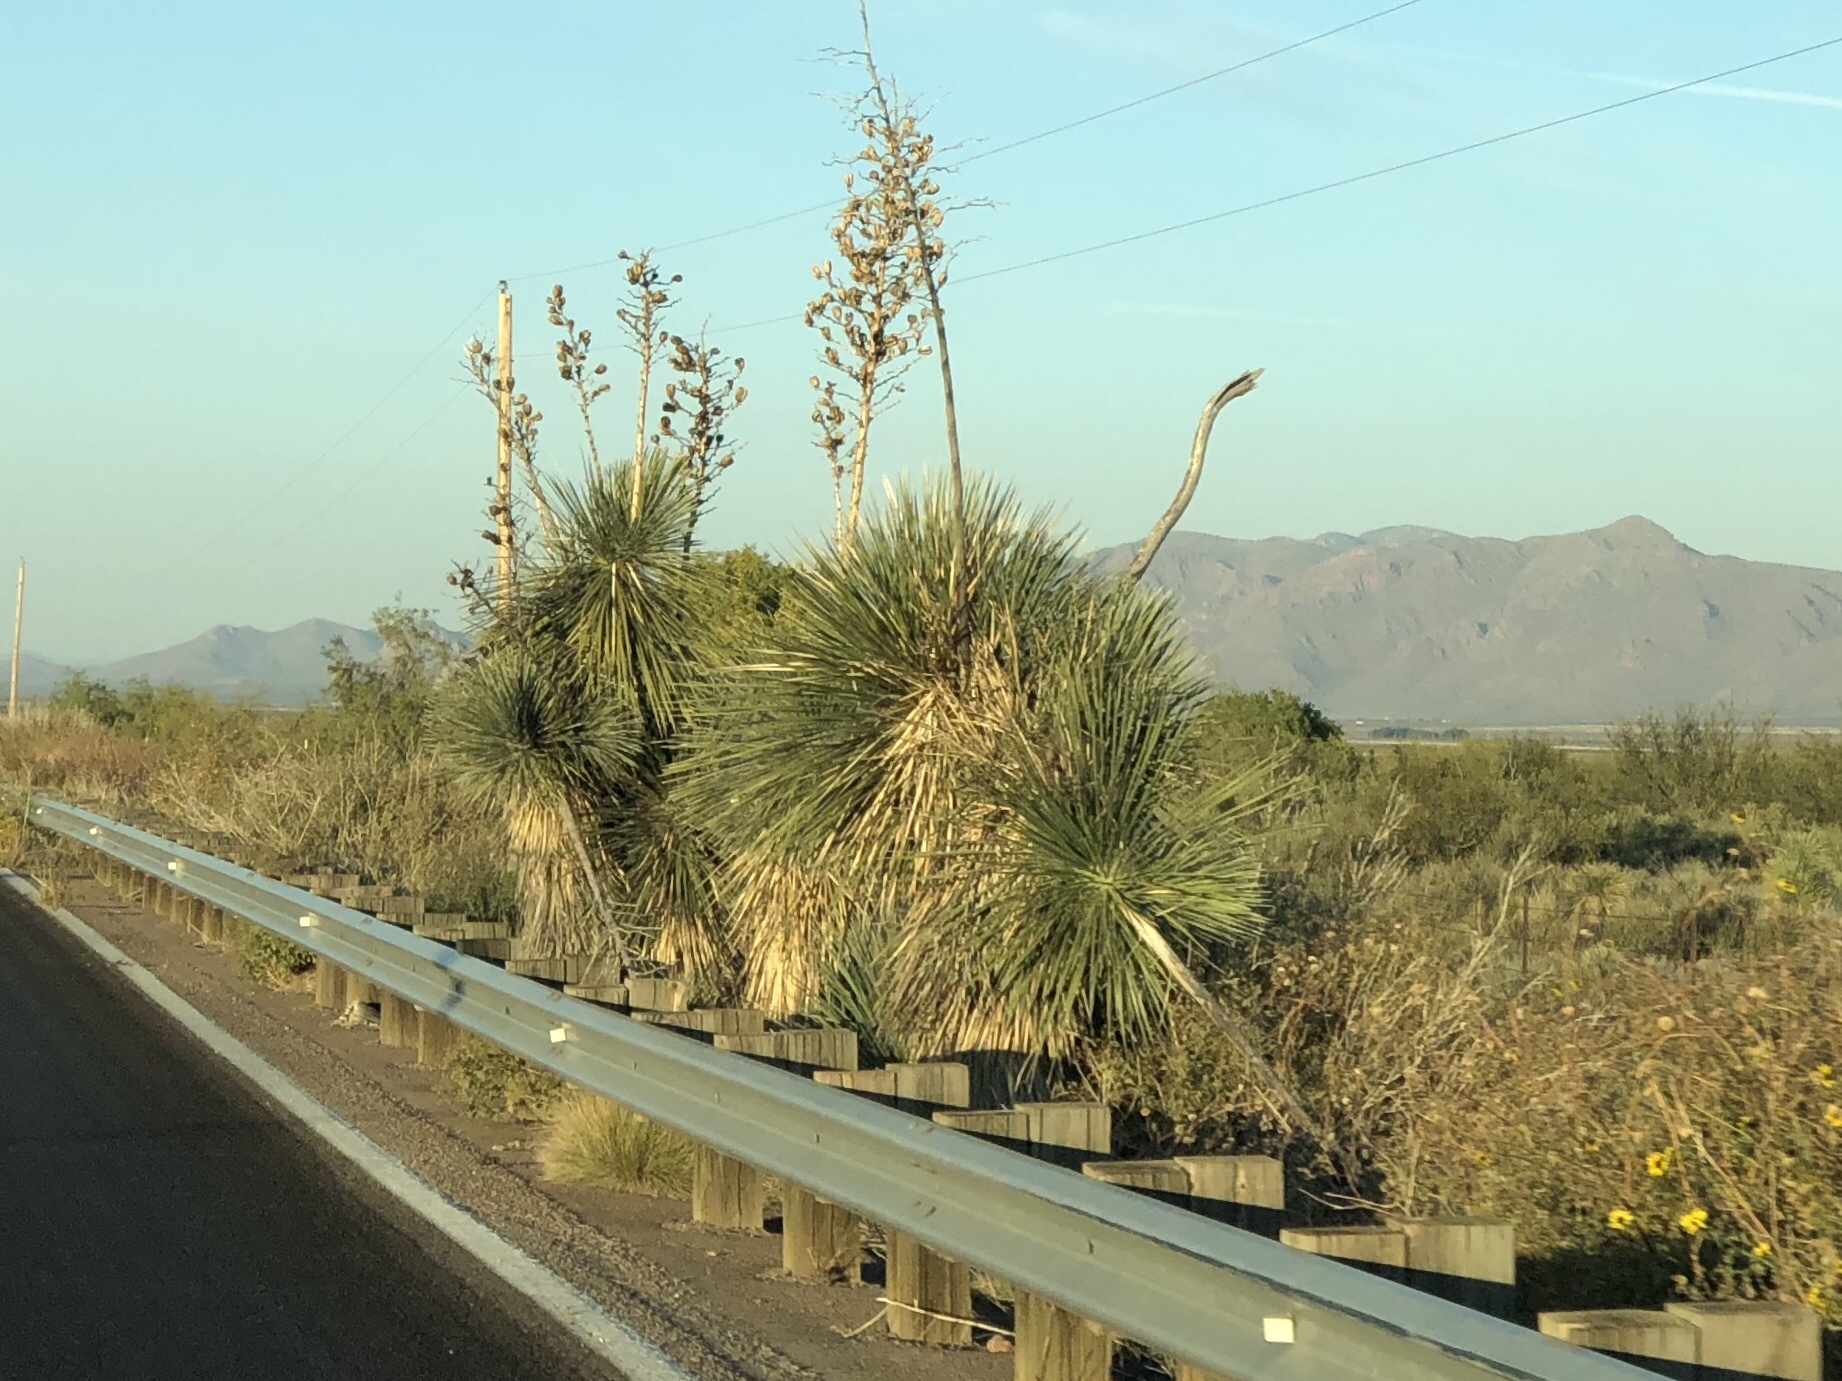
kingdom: Plantae
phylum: Tracheophyta
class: Liliopsida
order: Asparagales
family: Asparagaceae
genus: Yucca
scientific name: Yucca elata
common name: Palmella
